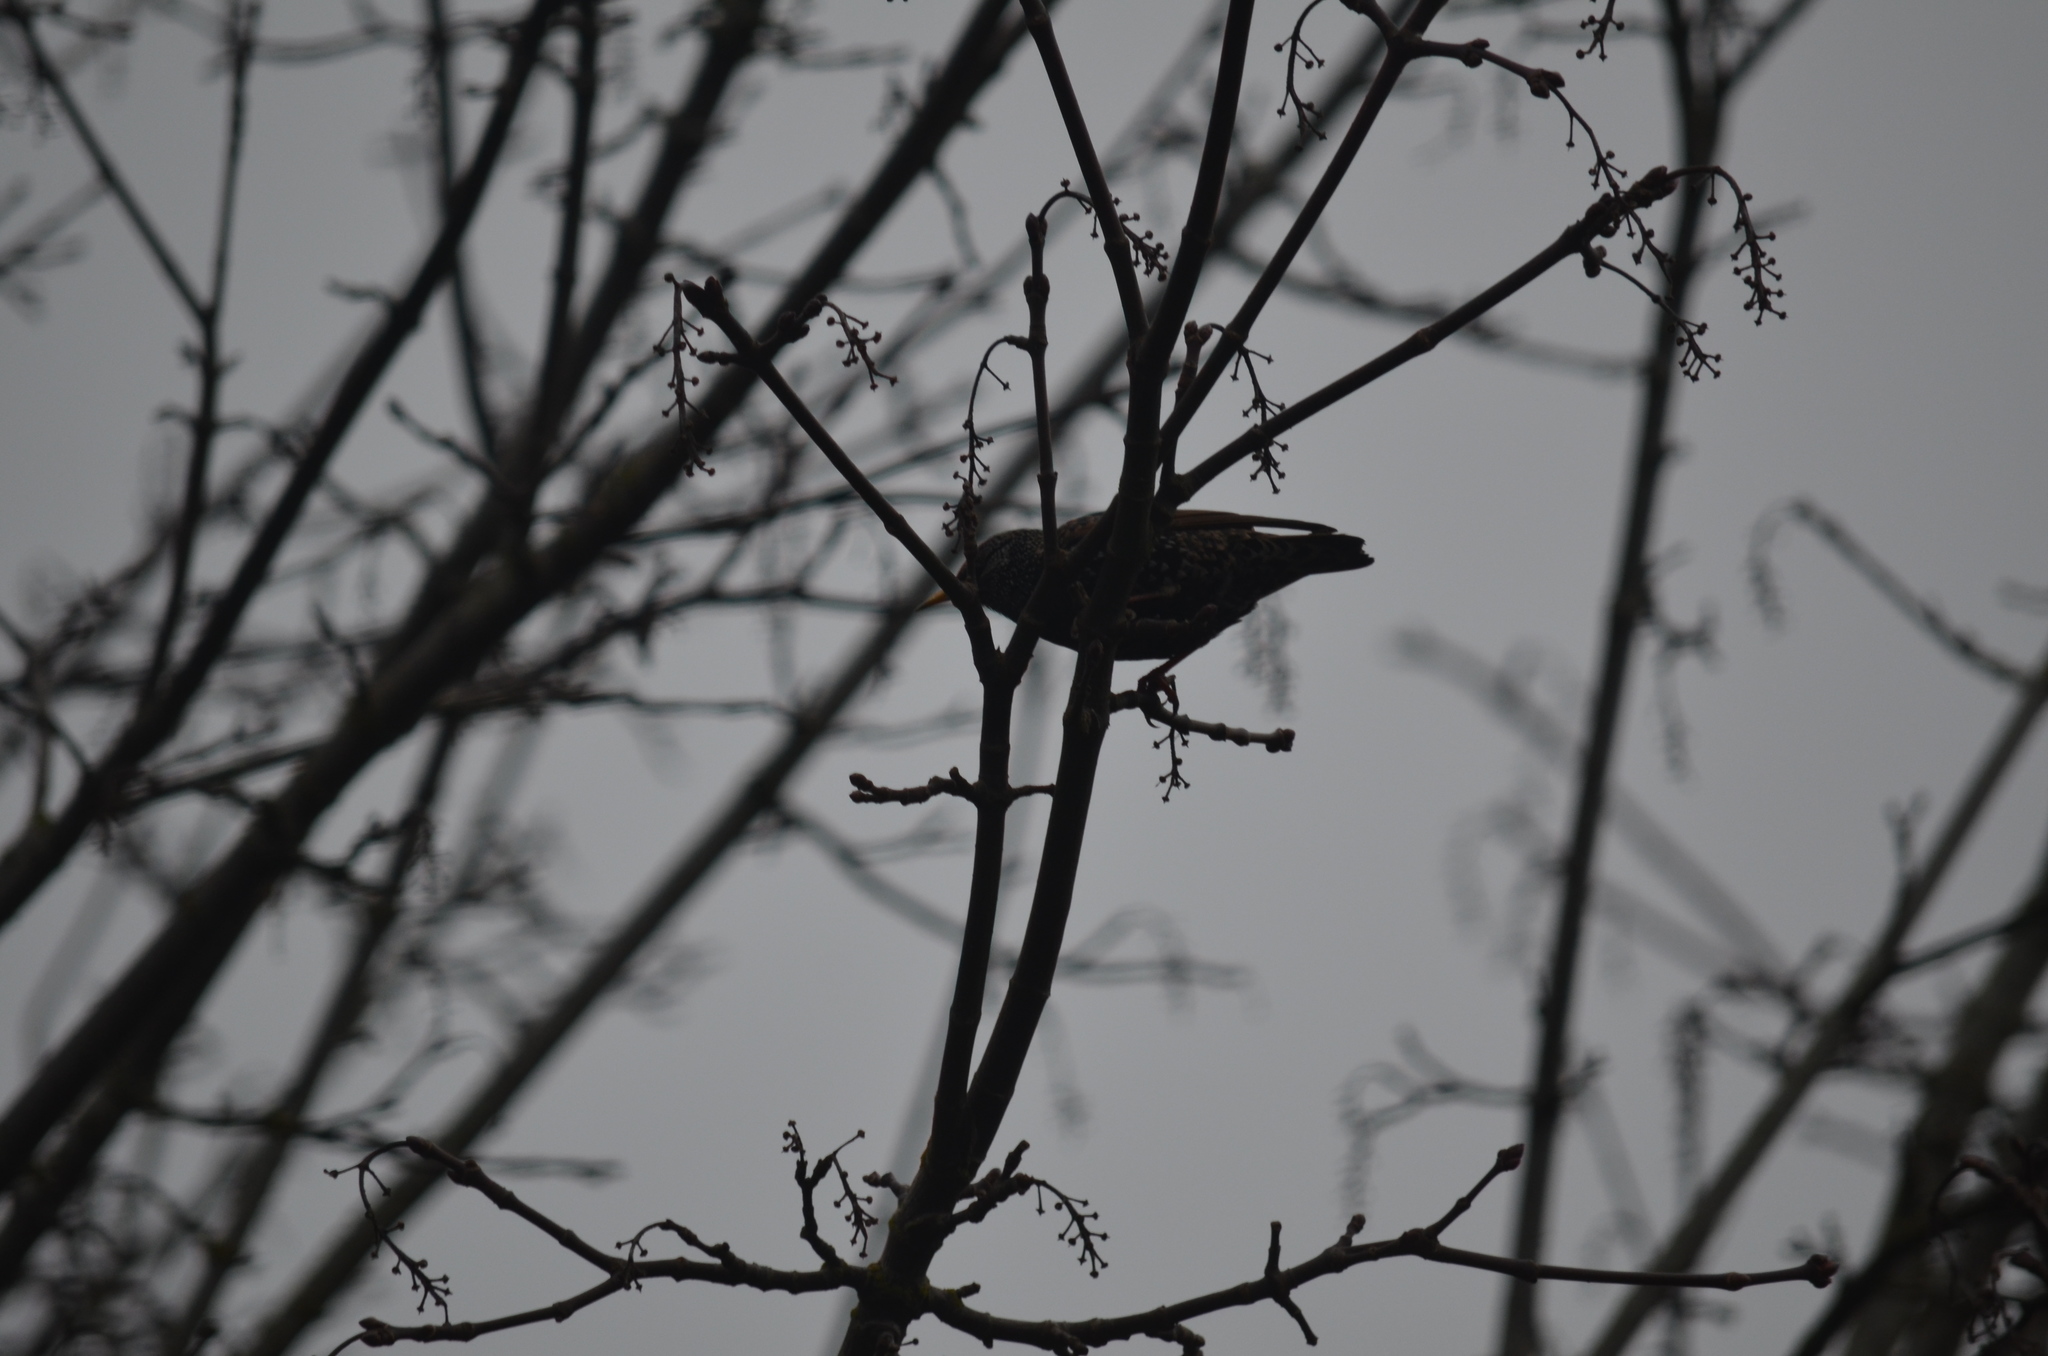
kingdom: Animalia
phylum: Chordata
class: Aves
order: Passeriformes
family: Sturnidae
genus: Sturnus
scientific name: Sturnus vulgaris
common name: Common starling
